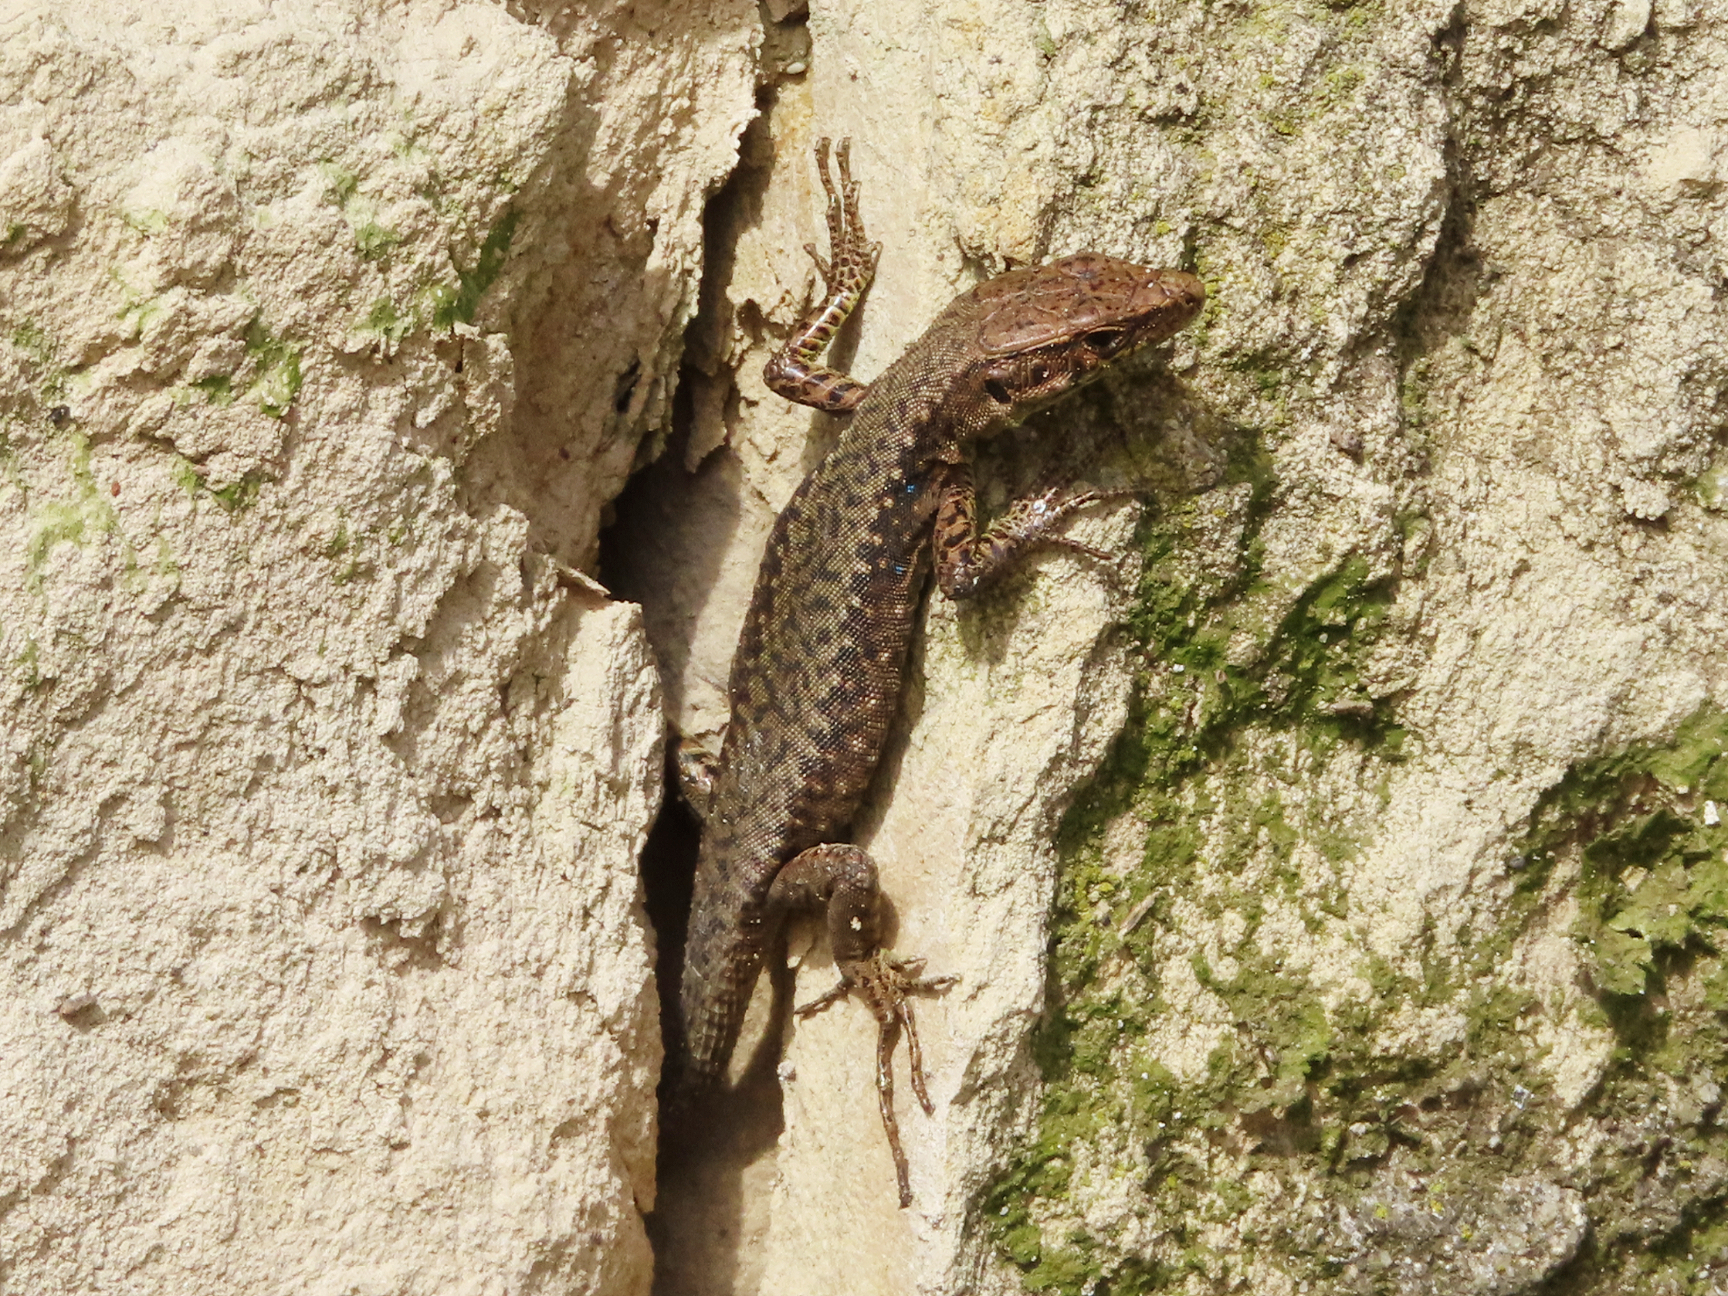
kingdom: Animalia
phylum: Chordata
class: Squamata
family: Lacertidae
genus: Darevskia
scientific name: Darevskia mixta
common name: Ajarian lizard
